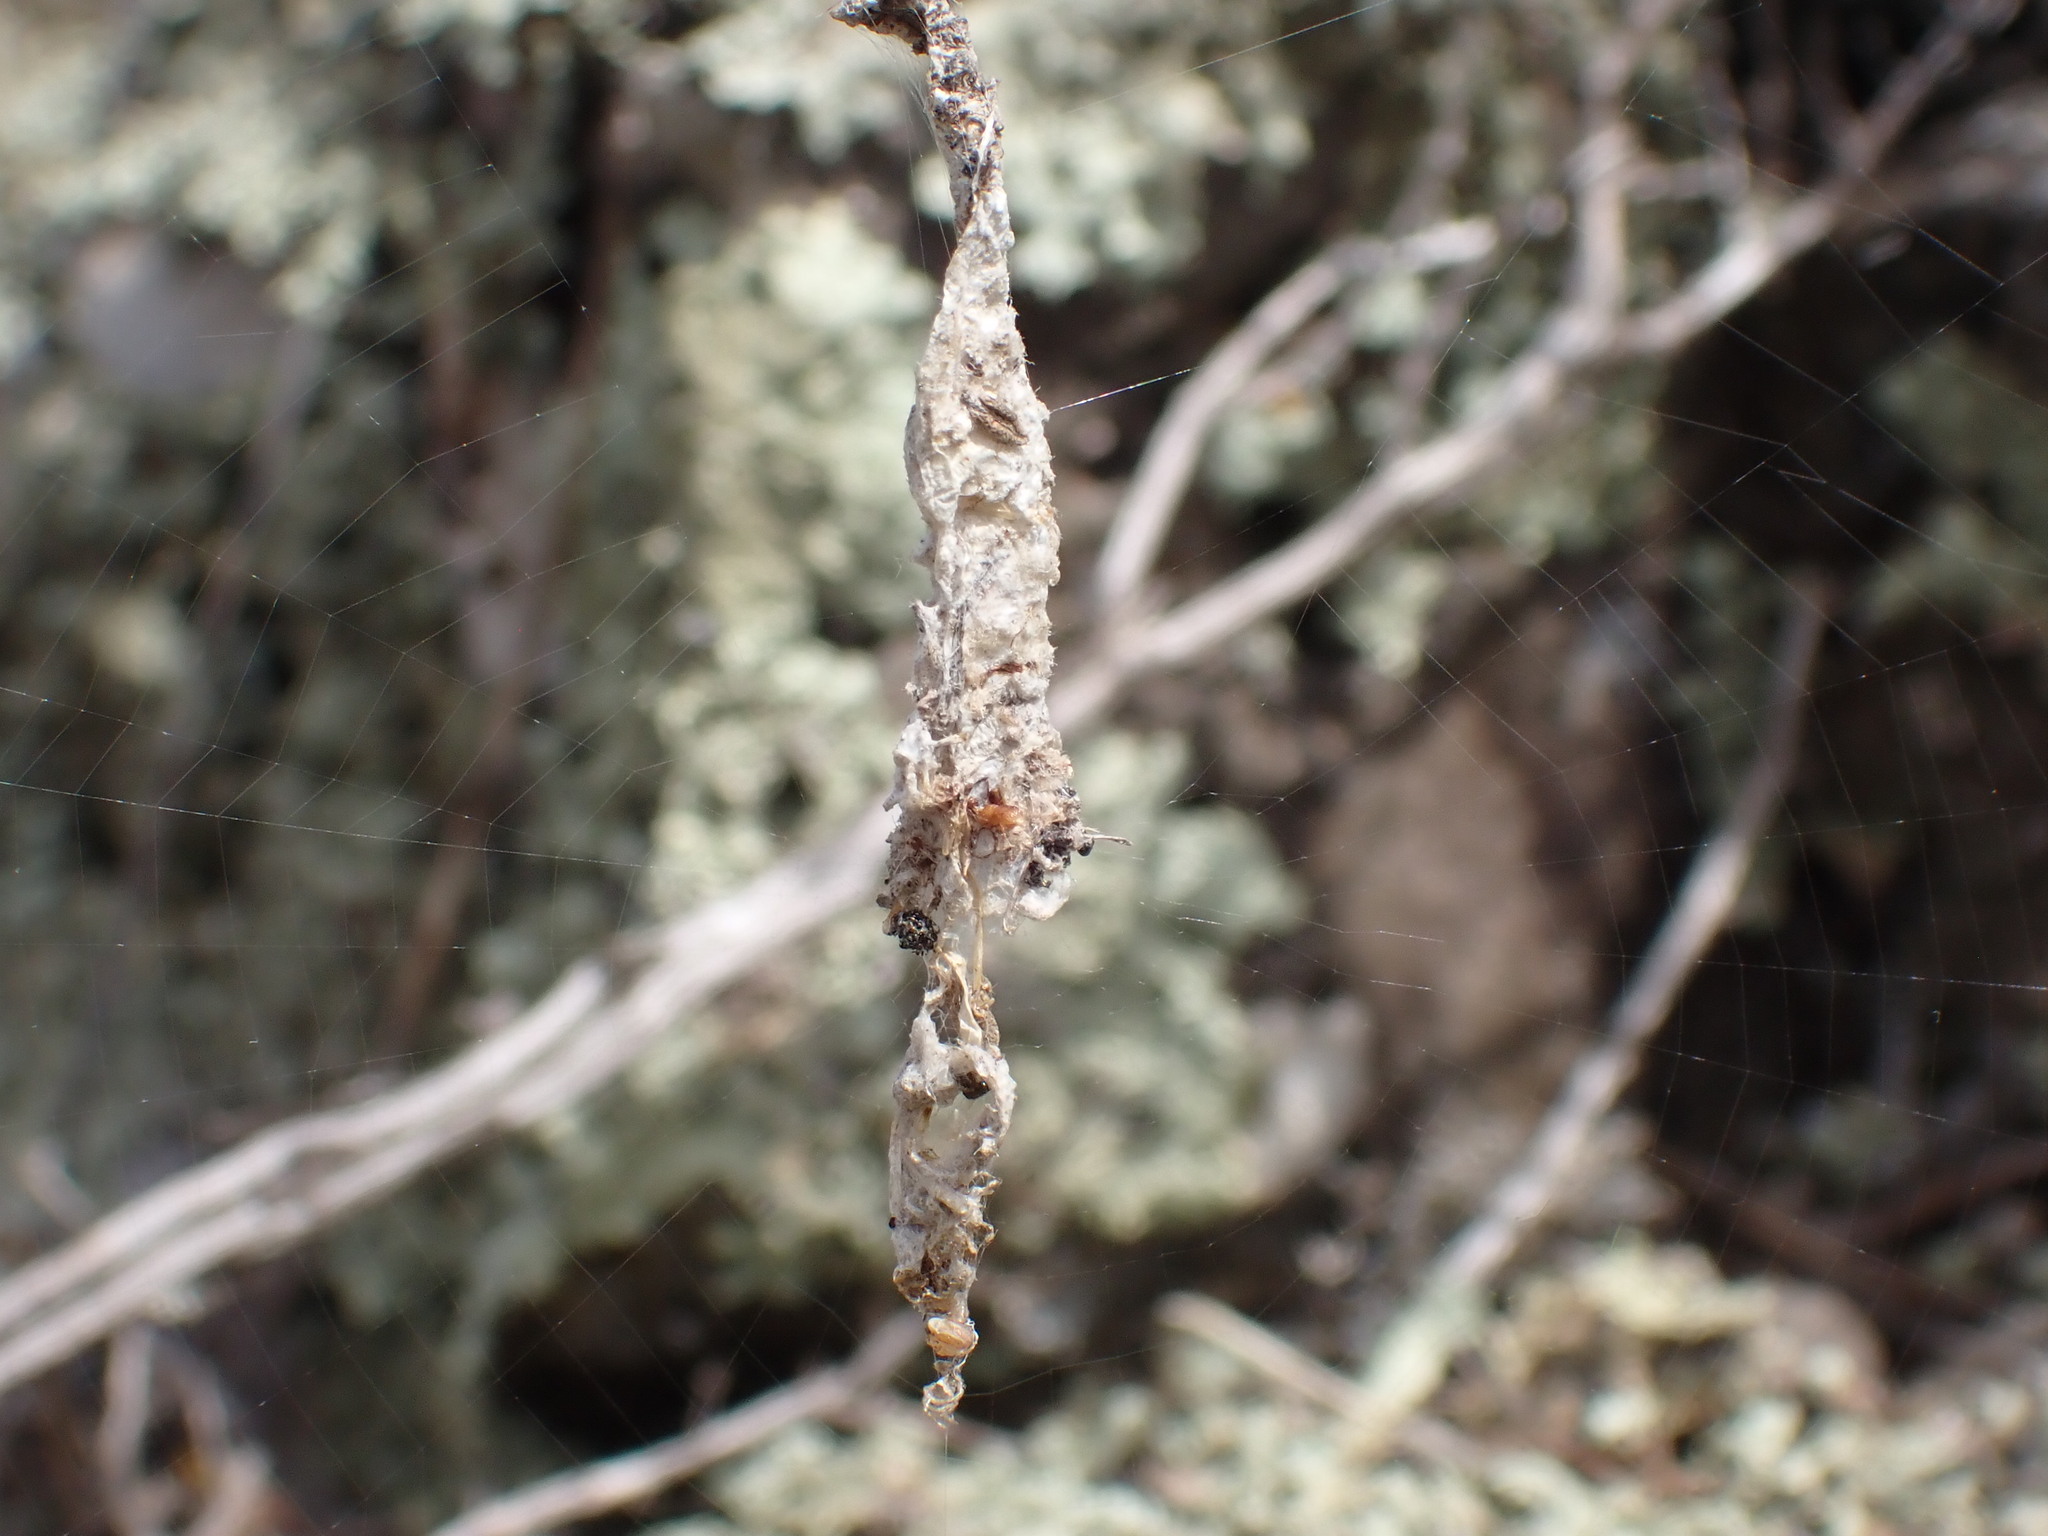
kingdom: Animalia
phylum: Arthropoda
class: Arachnida
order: Araneae
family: Araneidae
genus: Nemoscolus
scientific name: Nemoscolus laurae
